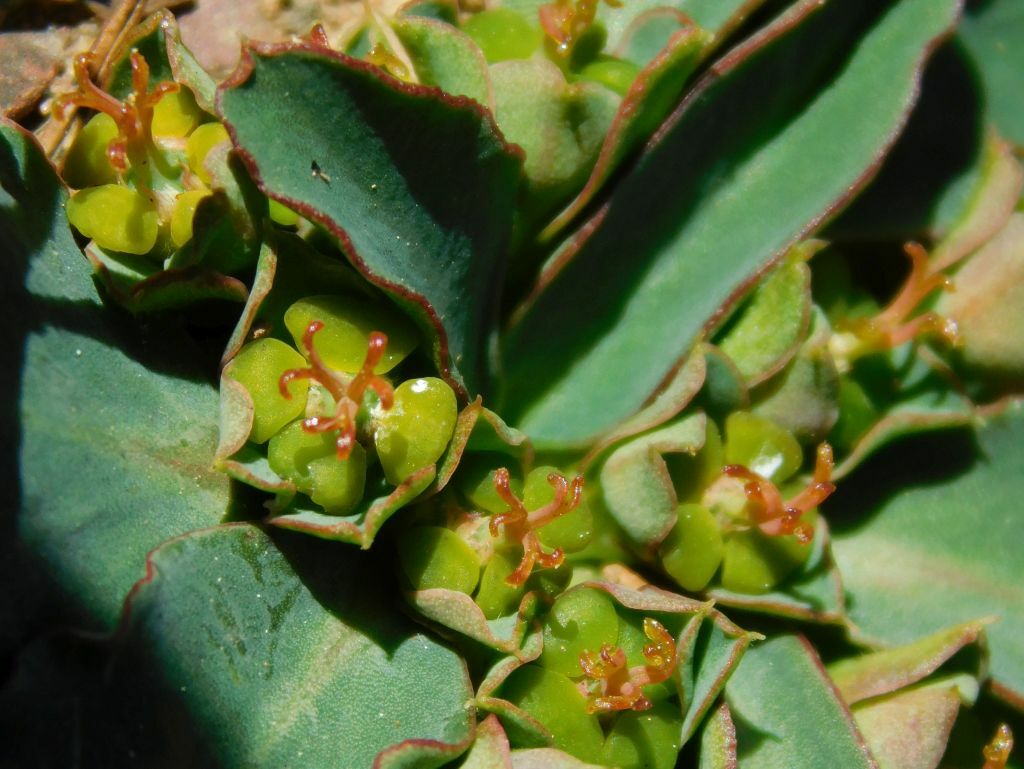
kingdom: Plantae
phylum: Tracheophyta
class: Magnoliopsida
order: Malpighiales
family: Euphorbiaceae
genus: Euphorbia
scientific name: Euphorbia tuberosa
